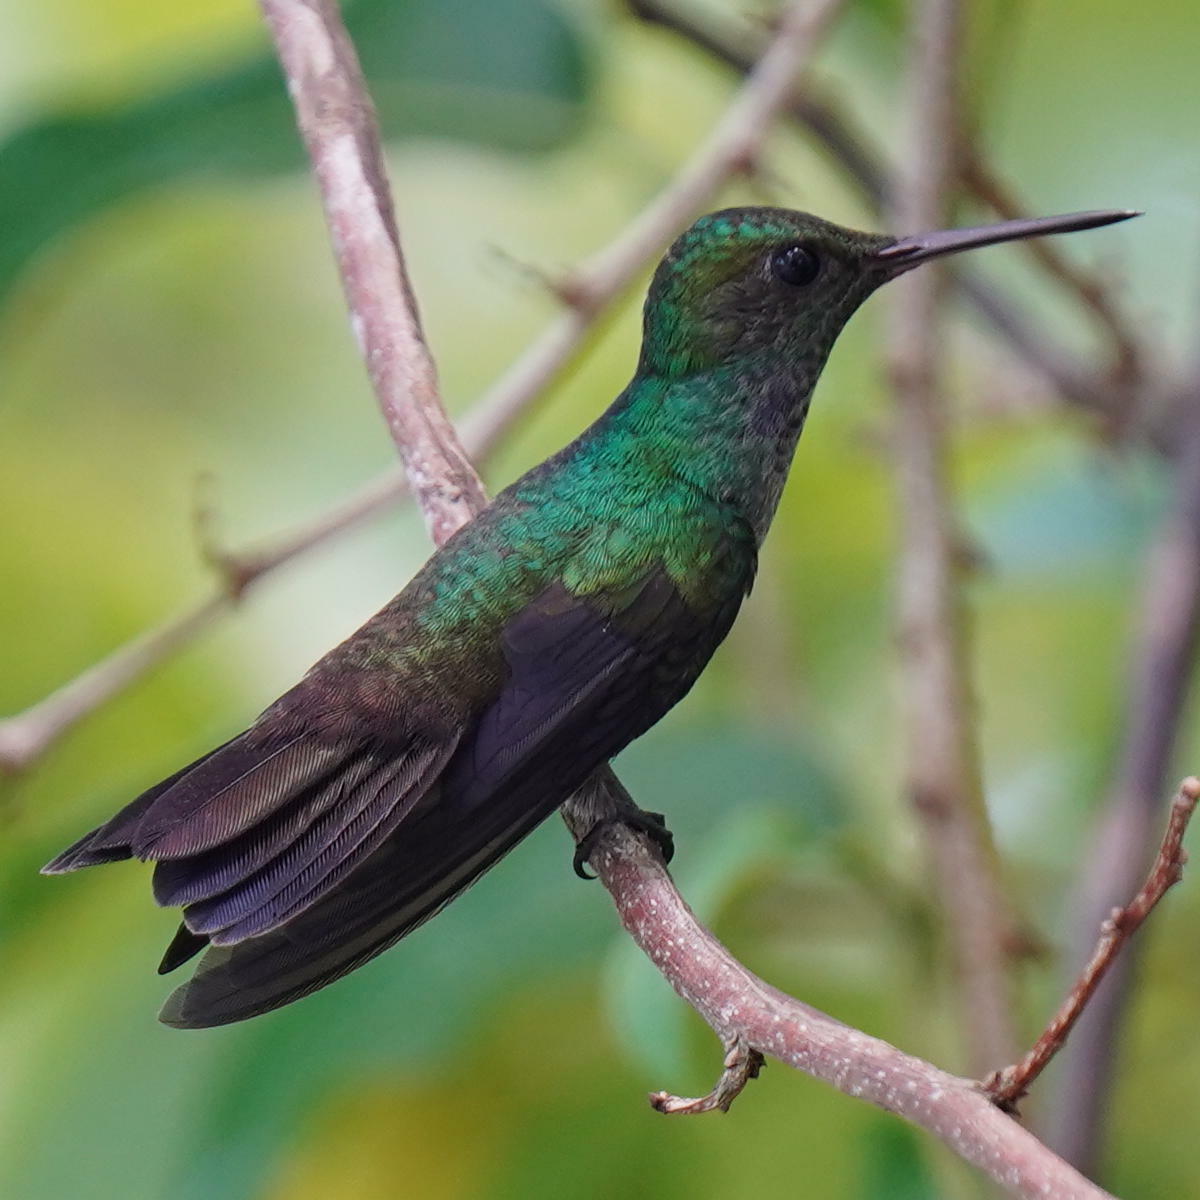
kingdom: Animalia
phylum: Chordata
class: Aves
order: Apodiformes
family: Trochilidae
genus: Polyerata
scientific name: Polyerata amabilis
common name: Blue-chested hummingbird
